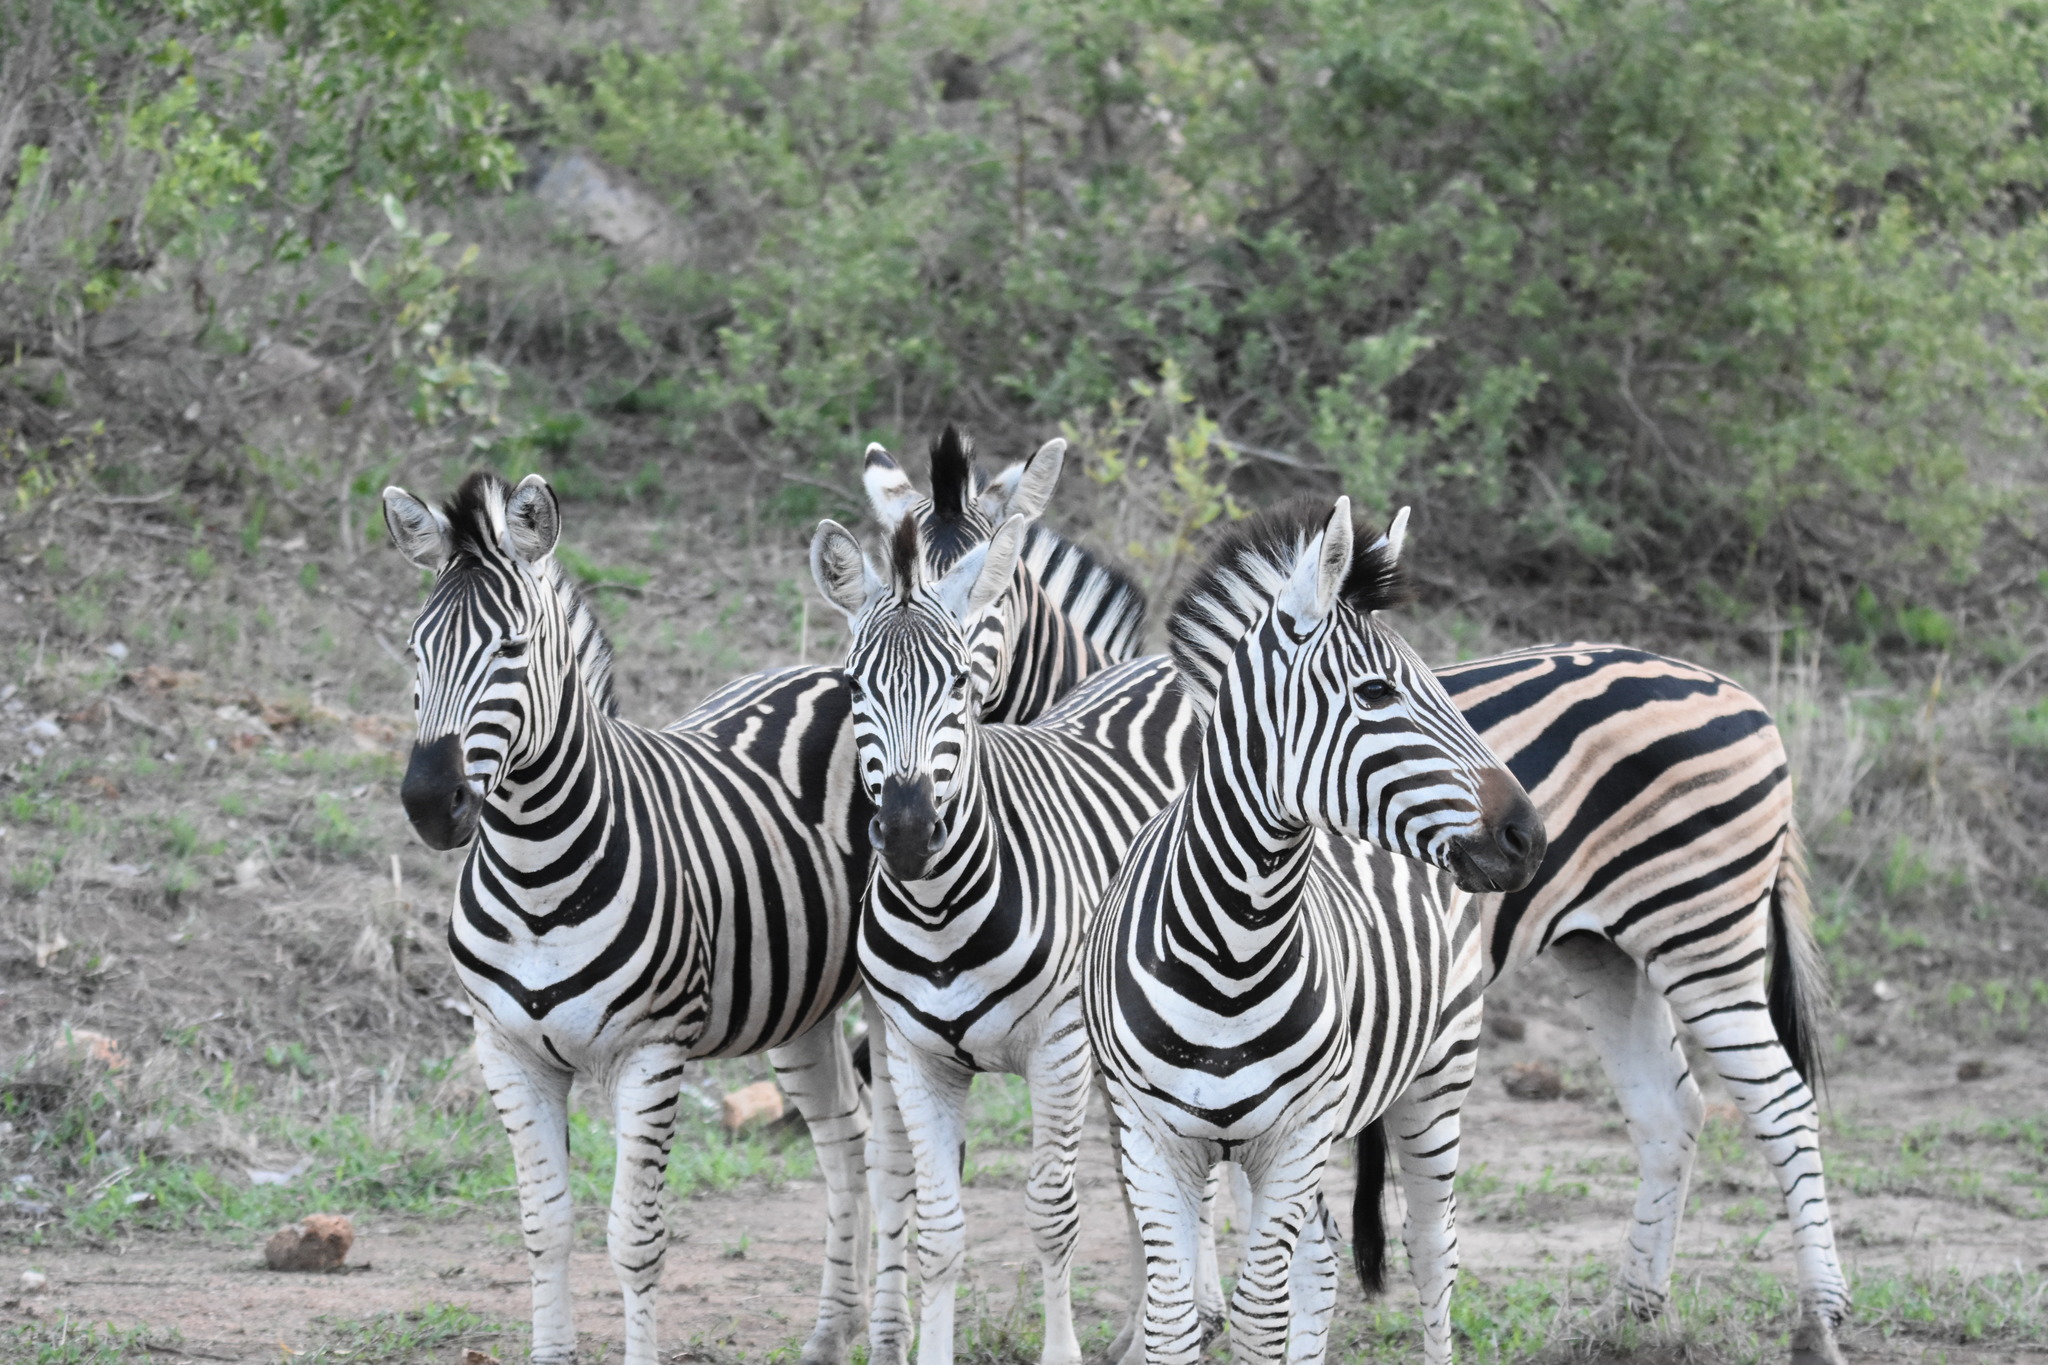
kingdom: Animalia
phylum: Chordata
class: Mammalia
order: Perissodactyla
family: Equidae
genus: Equus
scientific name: Equus quagga
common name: Plains zebra
